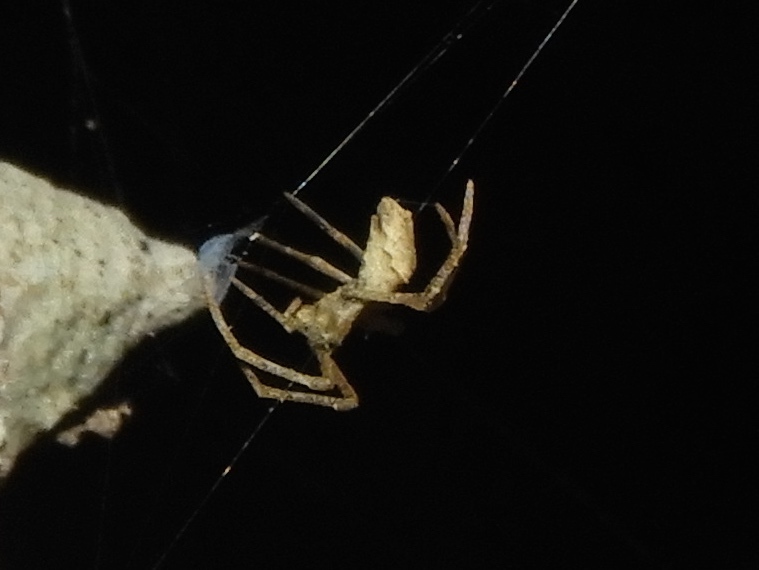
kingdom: Animalia
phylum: Arthropoda
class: Arachnida
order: Araneae
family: Deinopidae
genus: Deinopis
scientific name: Deinopis aurita
